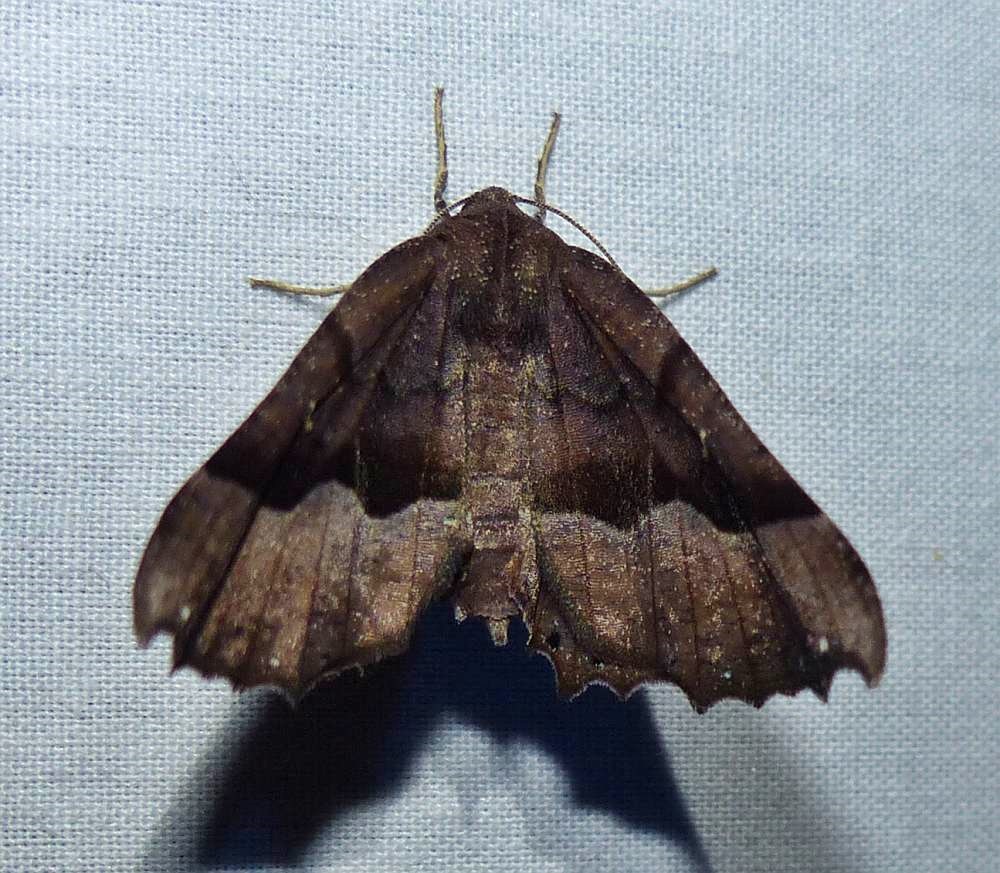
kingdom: Animalia
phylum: Arthropoda
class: Insecta
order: Lepidoptera
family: Geometridae
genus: Pero
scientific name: Pero honestaria
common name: Honest pero
